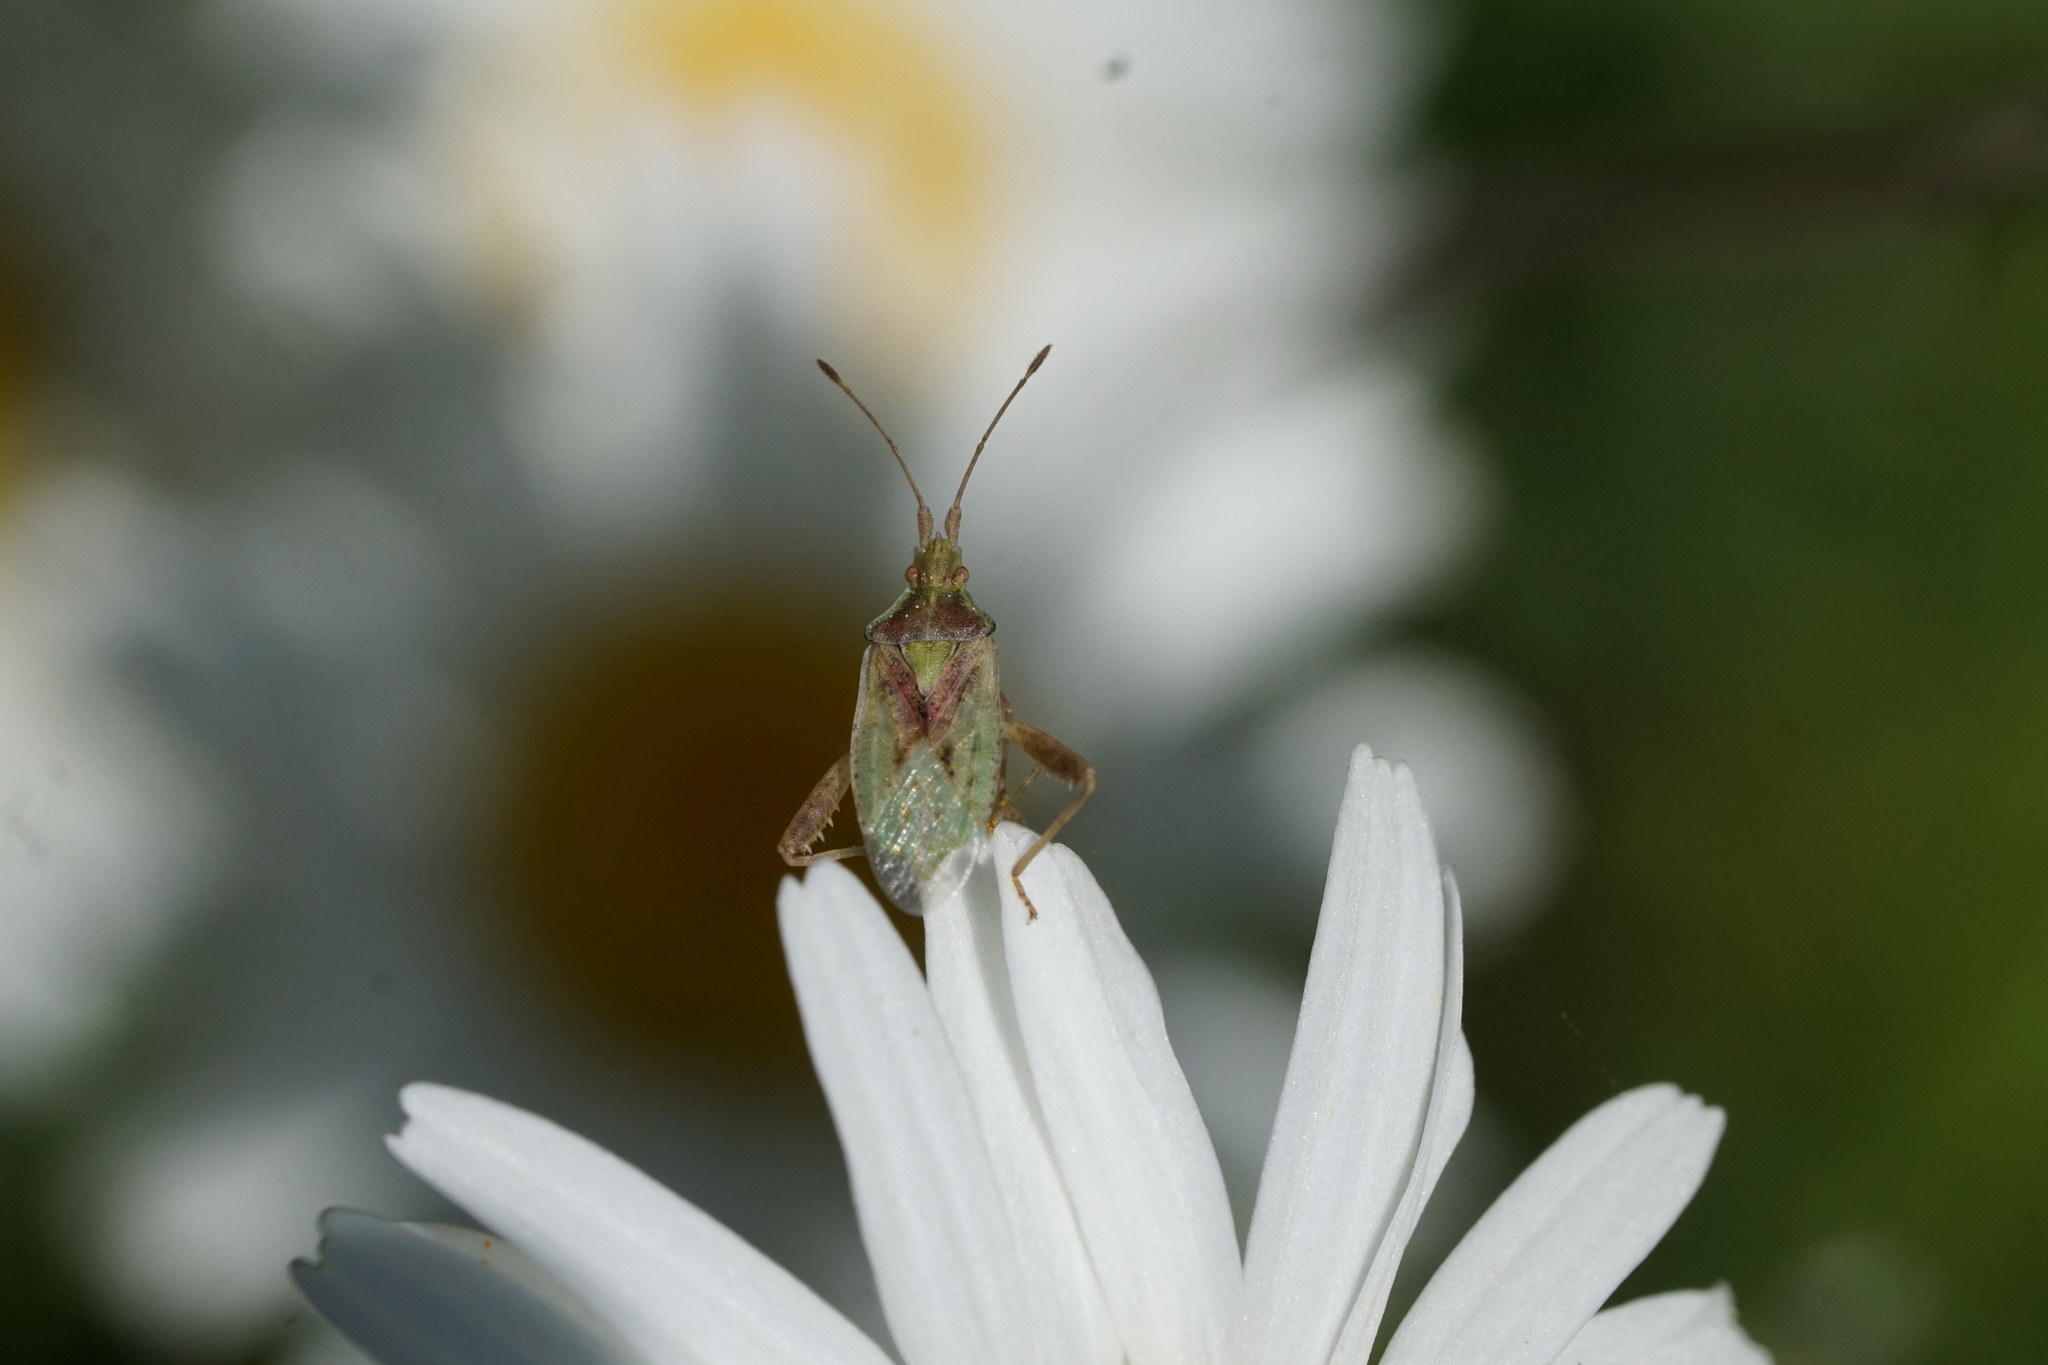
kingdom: Animalia
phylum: Arthropoda
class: Insecta
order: Hemiptera
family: Rhopalidae
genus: Harmostes
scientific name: Harmostes reflexulus
